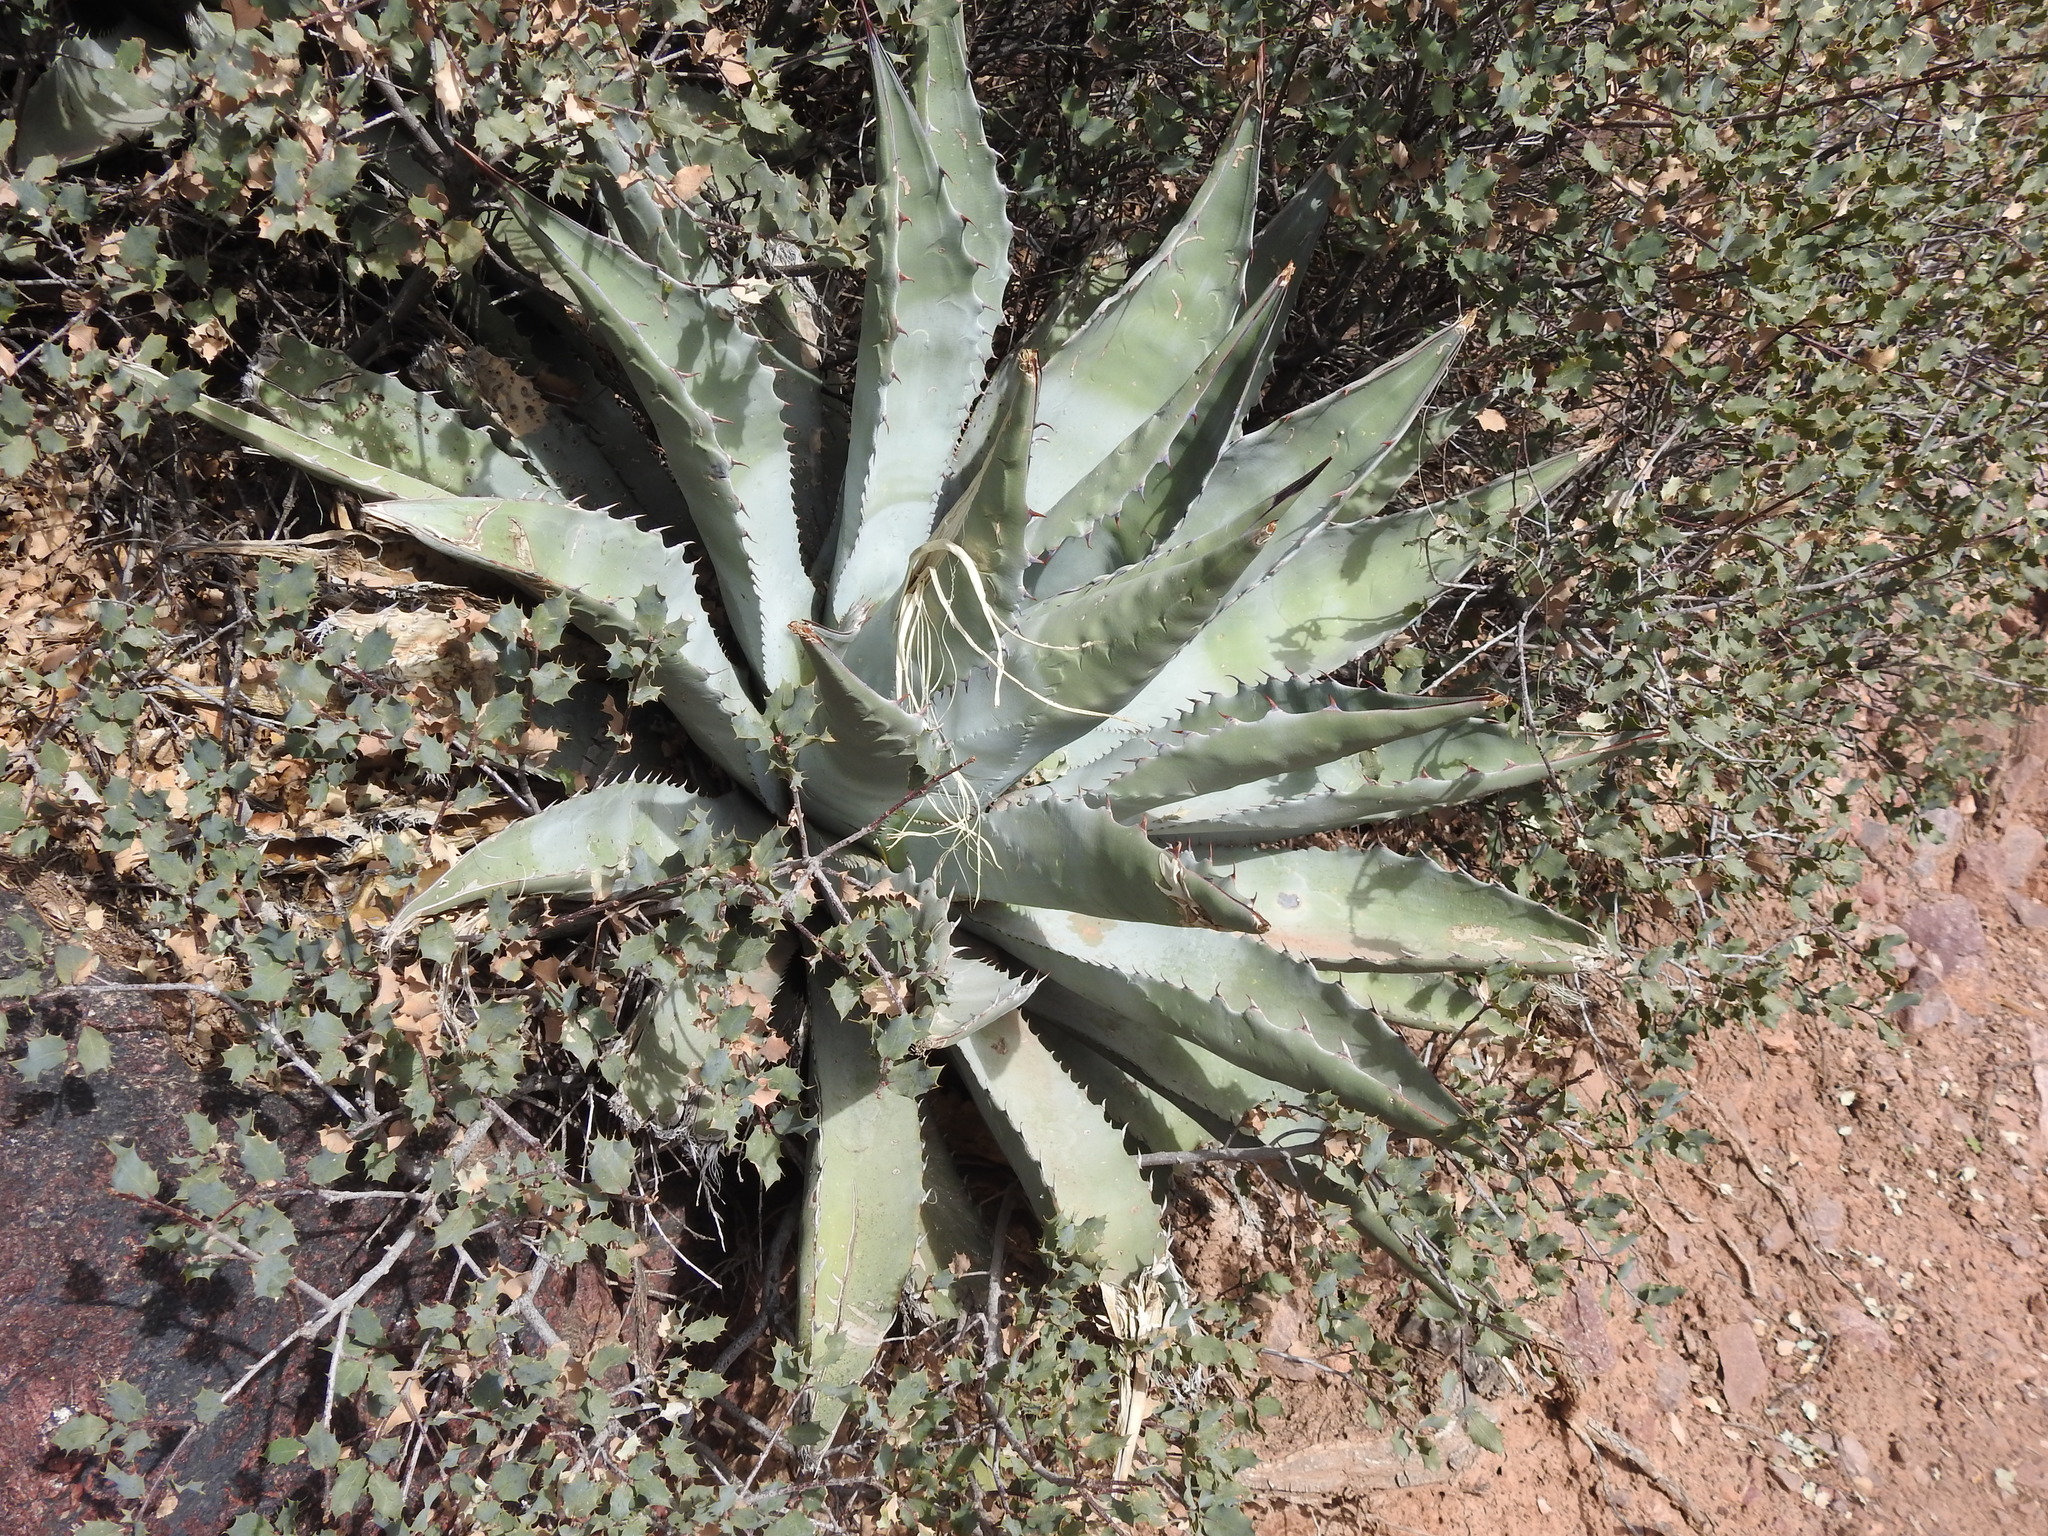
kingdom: Plantae
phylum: Tracheophyta
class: Liliopsida
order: Asparagales
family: Asparagaceae
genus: Agave
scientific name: Agave chrysantha
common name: Golden-flowered agave
